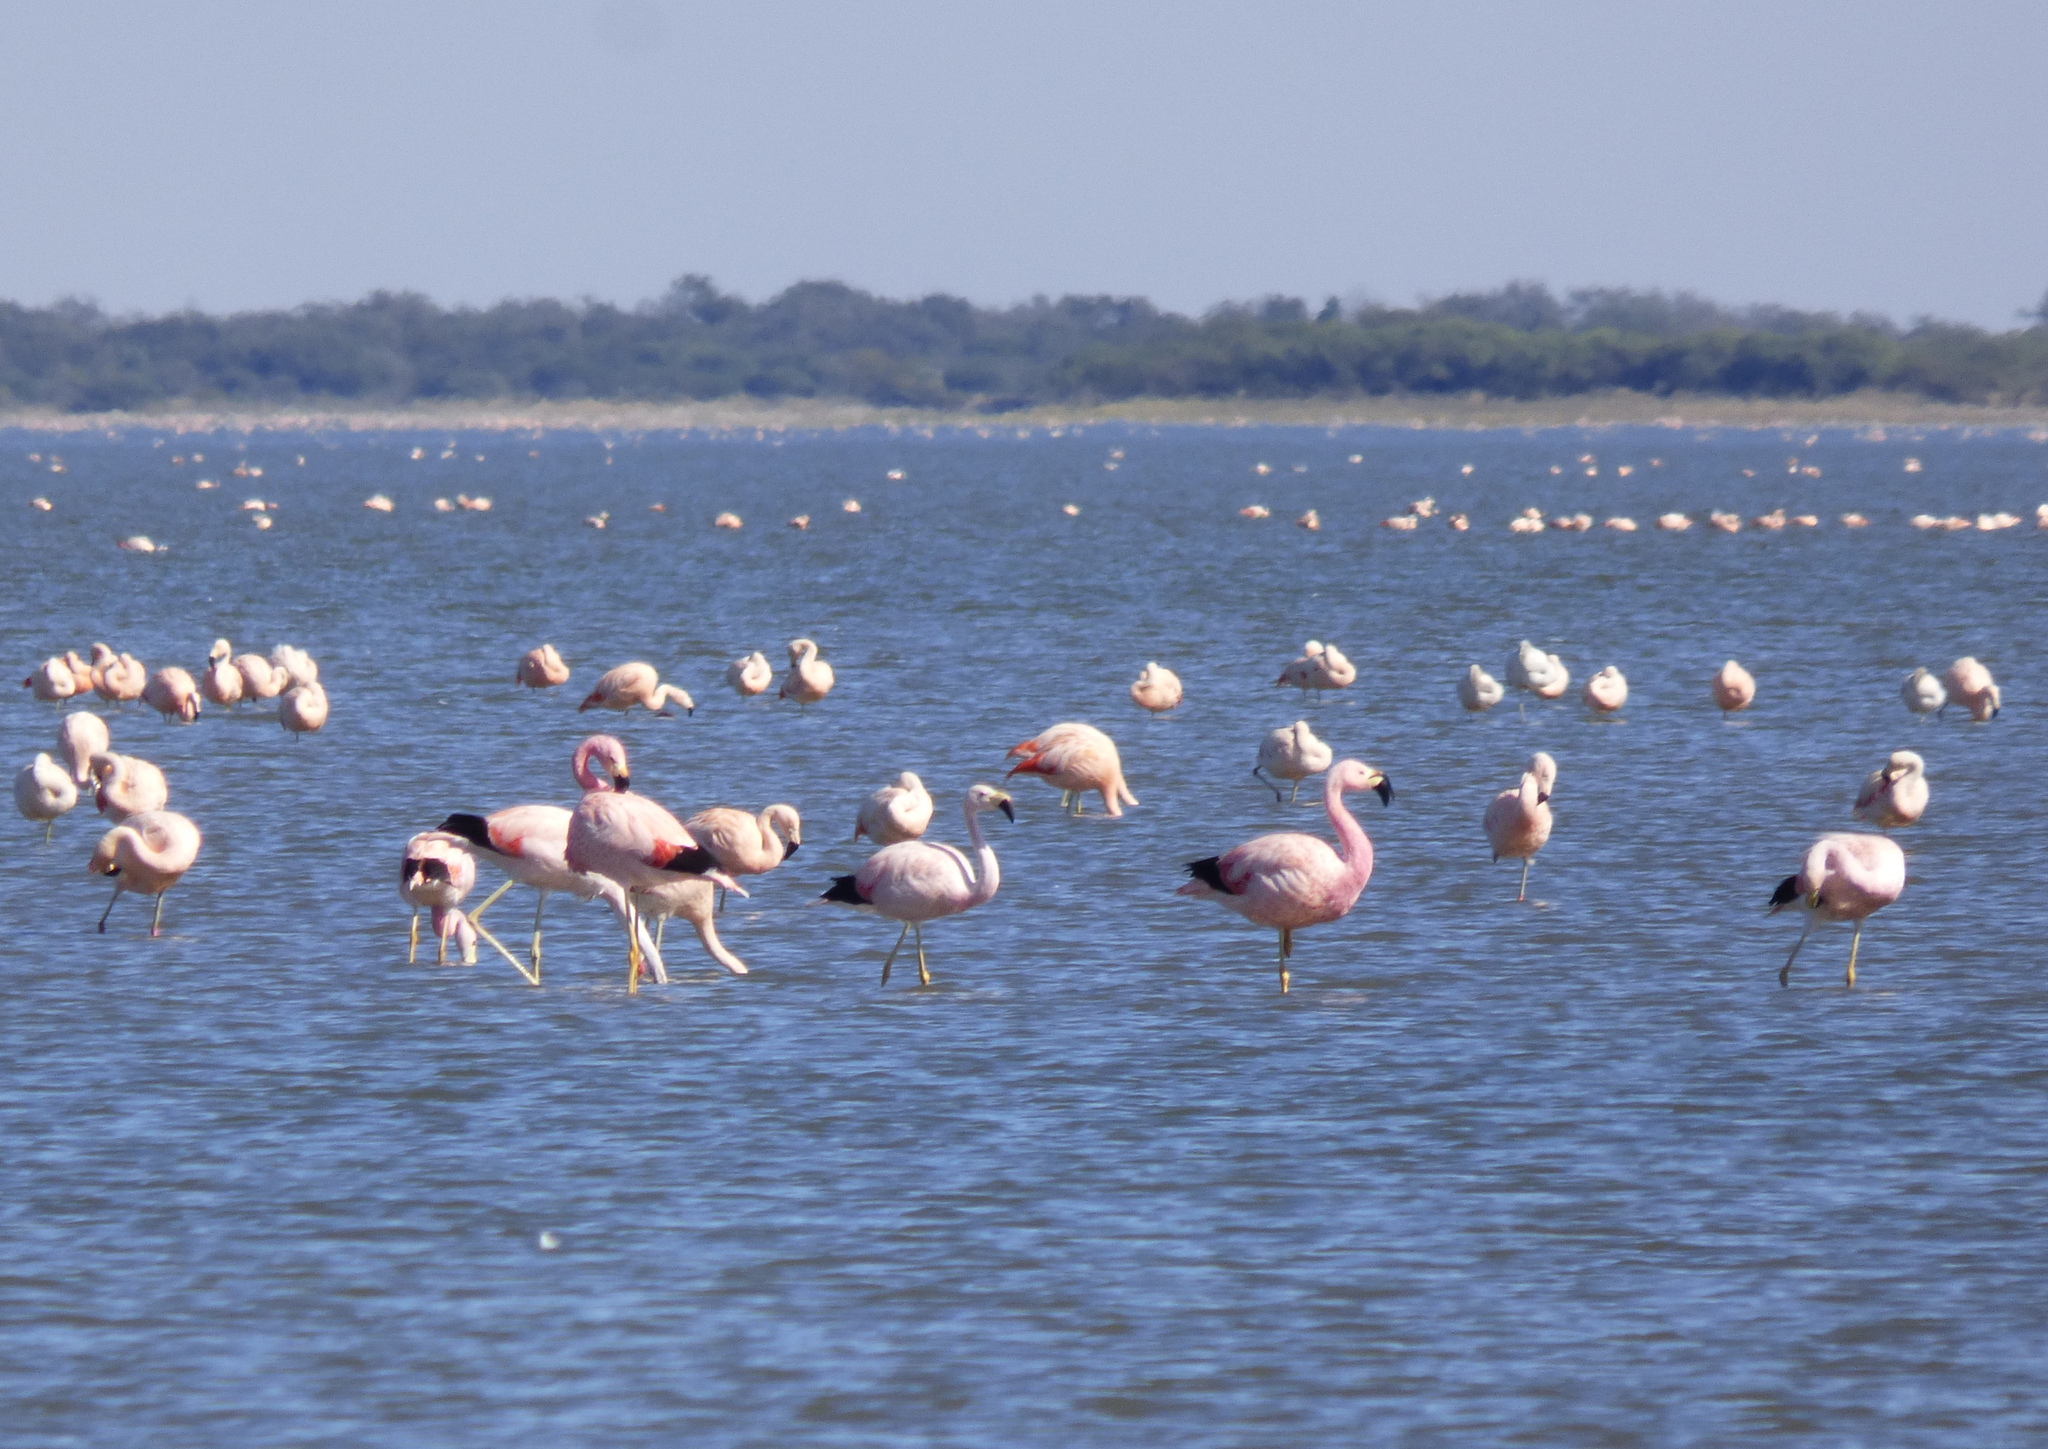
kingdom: Animalia
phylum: Chordata
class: Aves
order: Phoenicopteriformes
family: Phoenicopteridae
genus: Phoenicoparrus
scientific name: Phoenicoparrus andinus
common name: Andean flamingo
